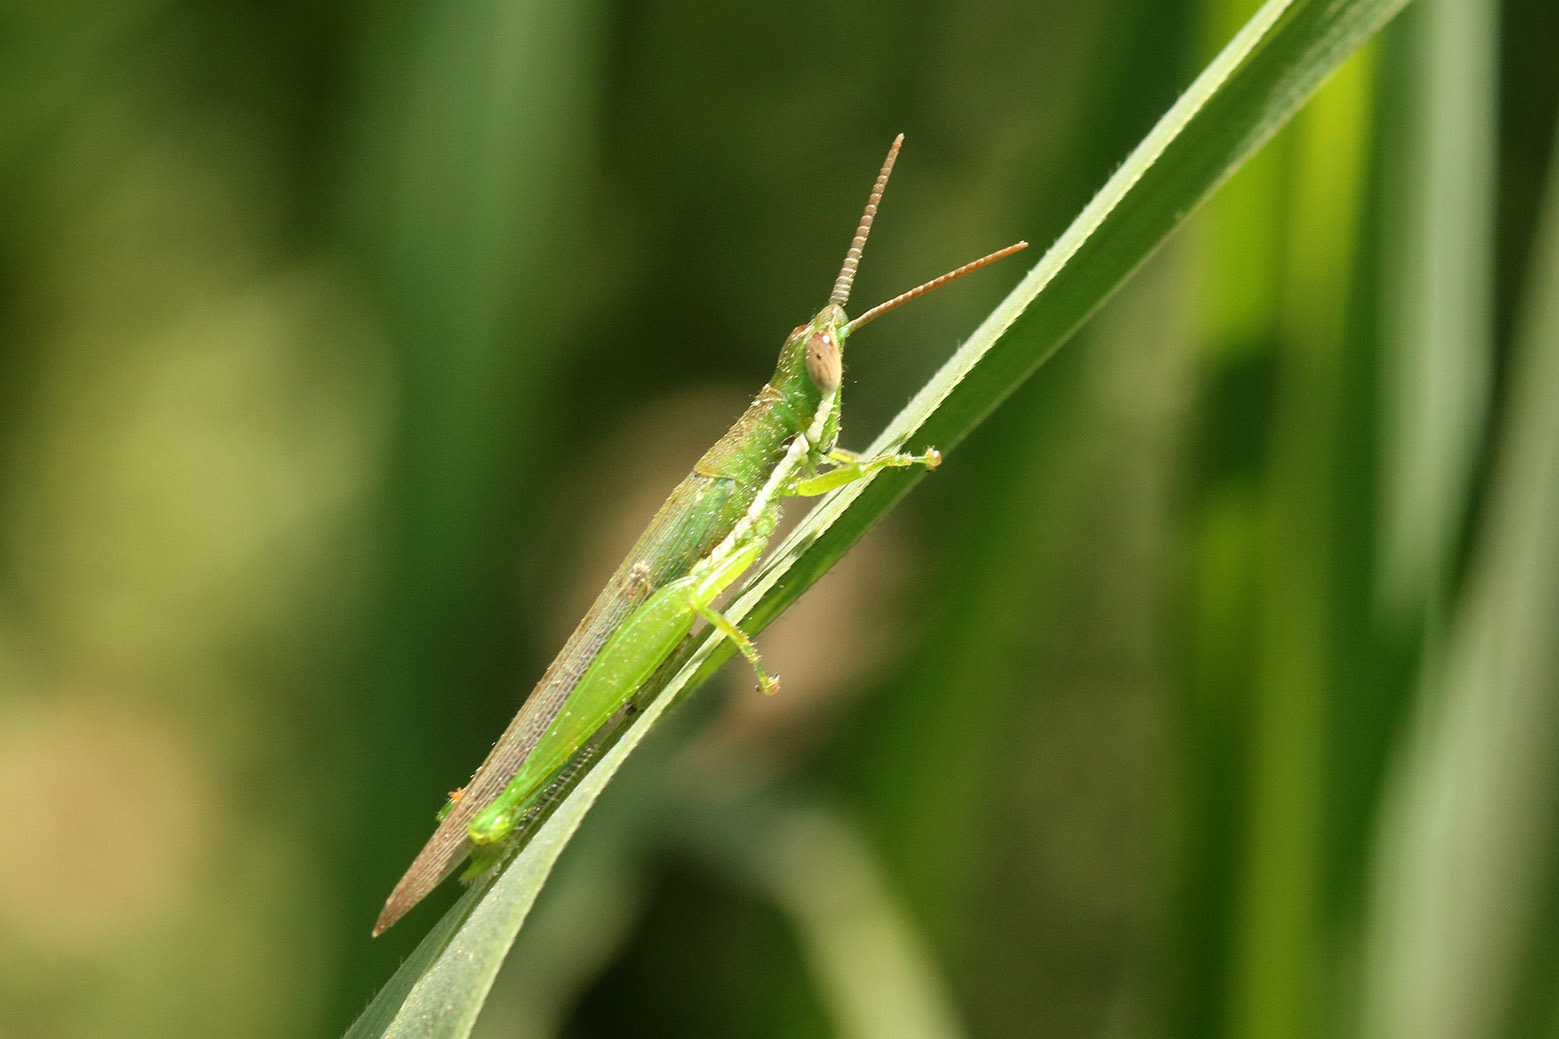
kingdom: Animalia
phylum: Arthropoda
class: Insecta
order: Orthoptera
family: Acrididae
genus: Tucayaca
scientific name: Tucayaca gracilis
